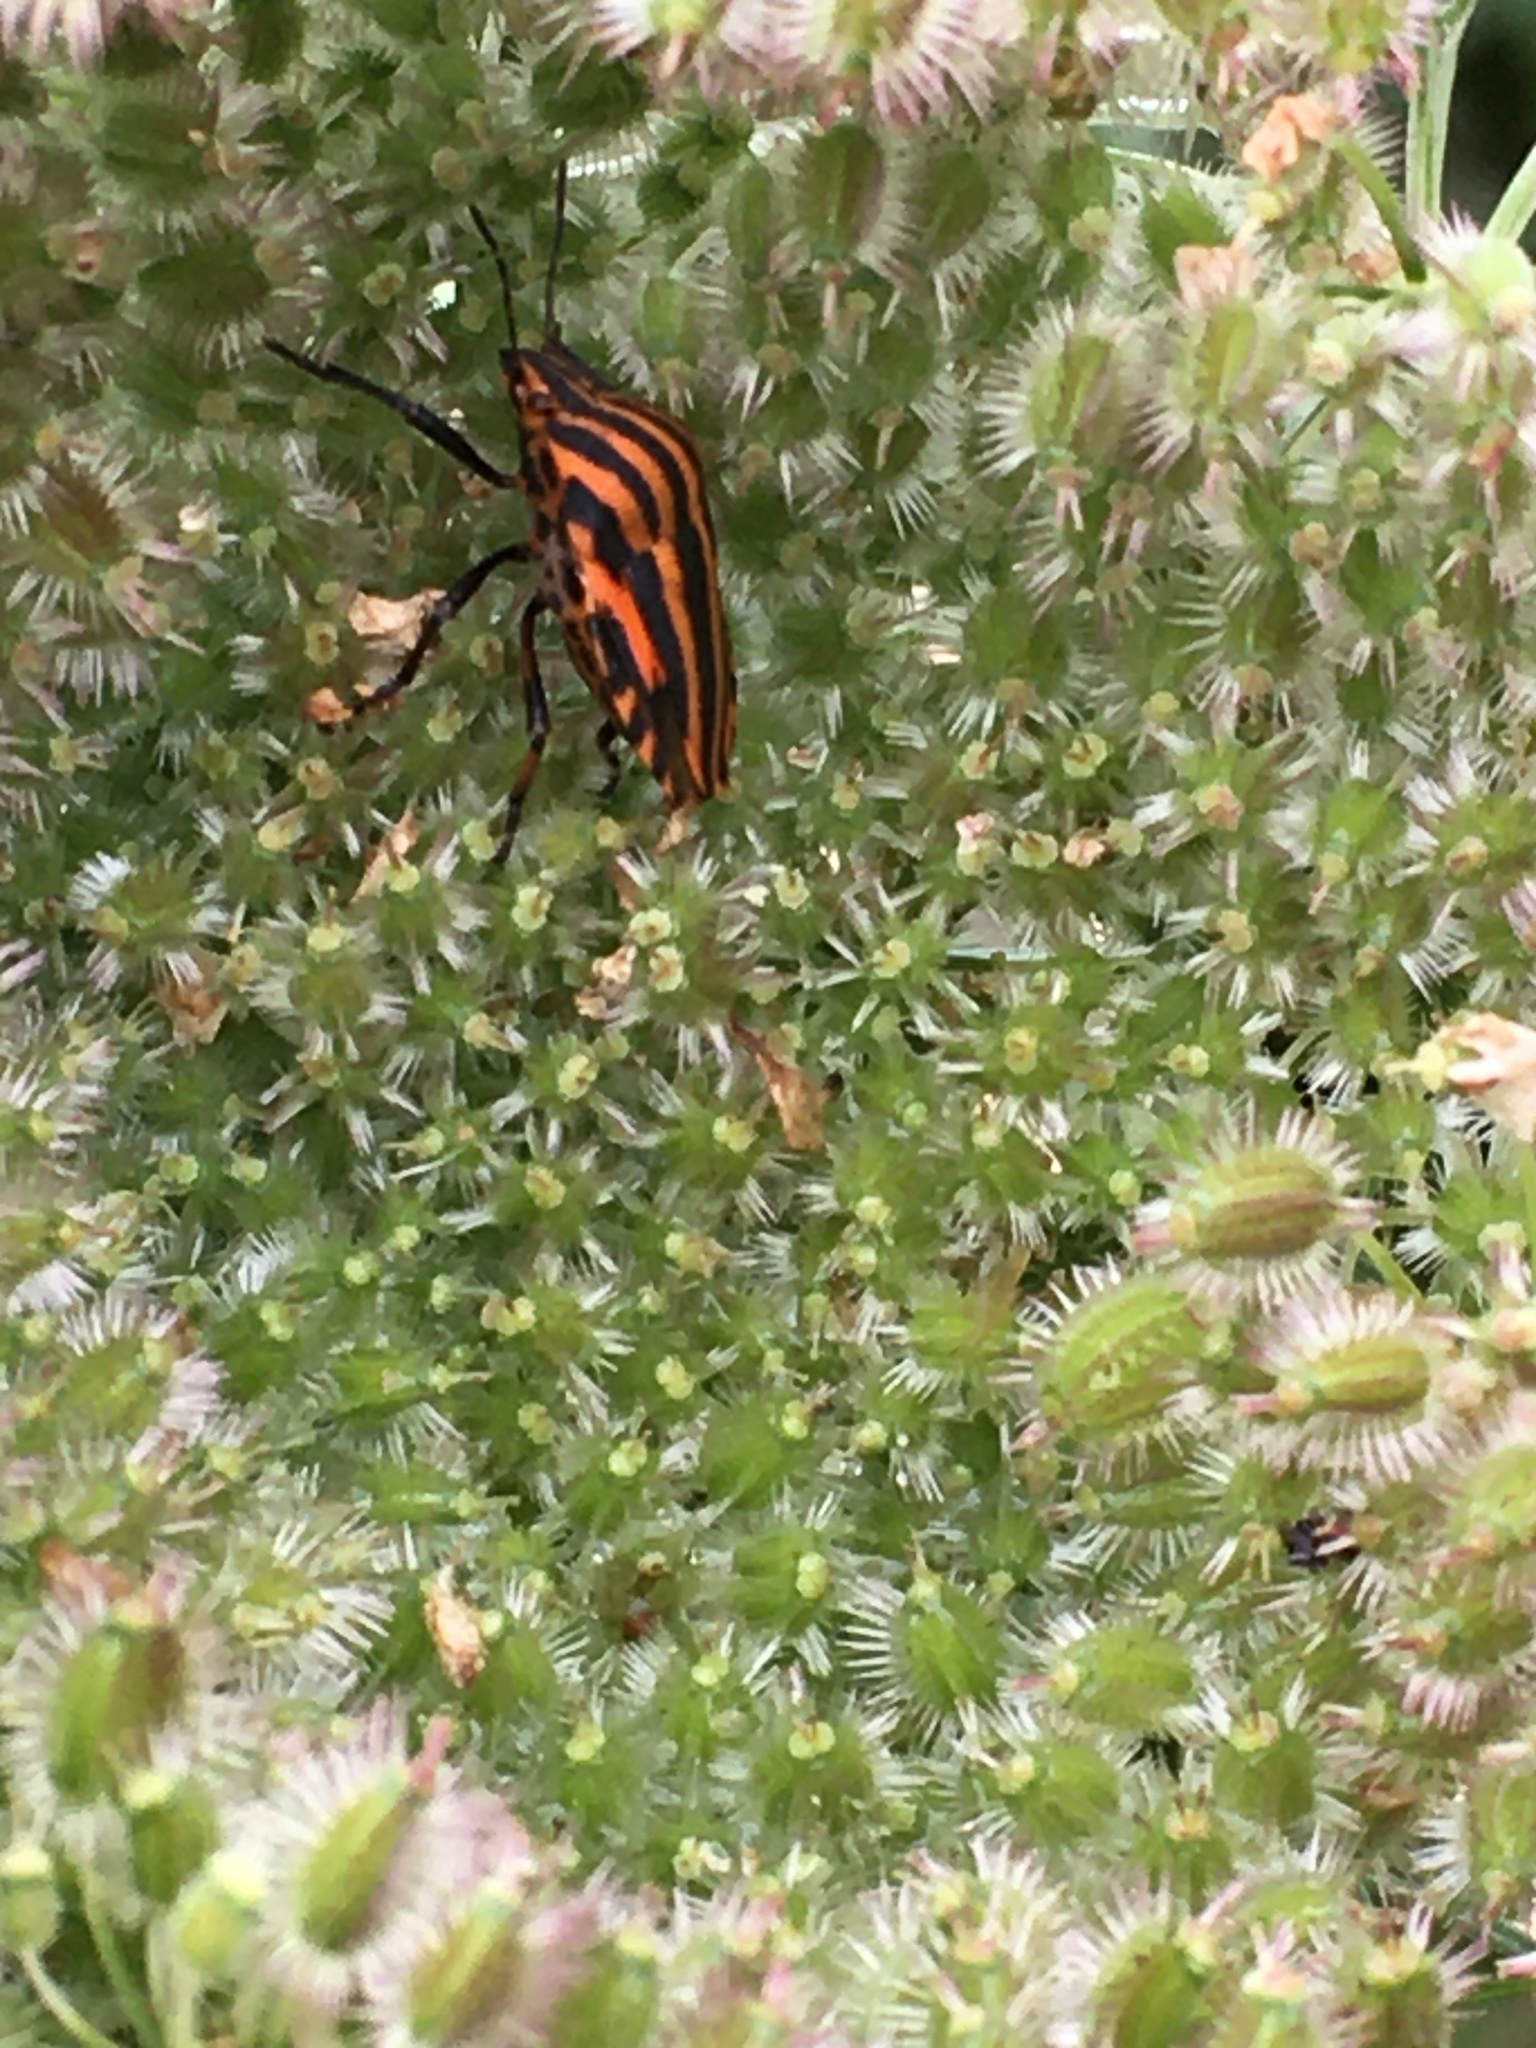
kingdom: Animalia
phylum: Arthropoda
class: Insecta
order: Hemiptera
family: Pentatomidae
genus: Graphosoma
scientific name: Graphosoma italicum
